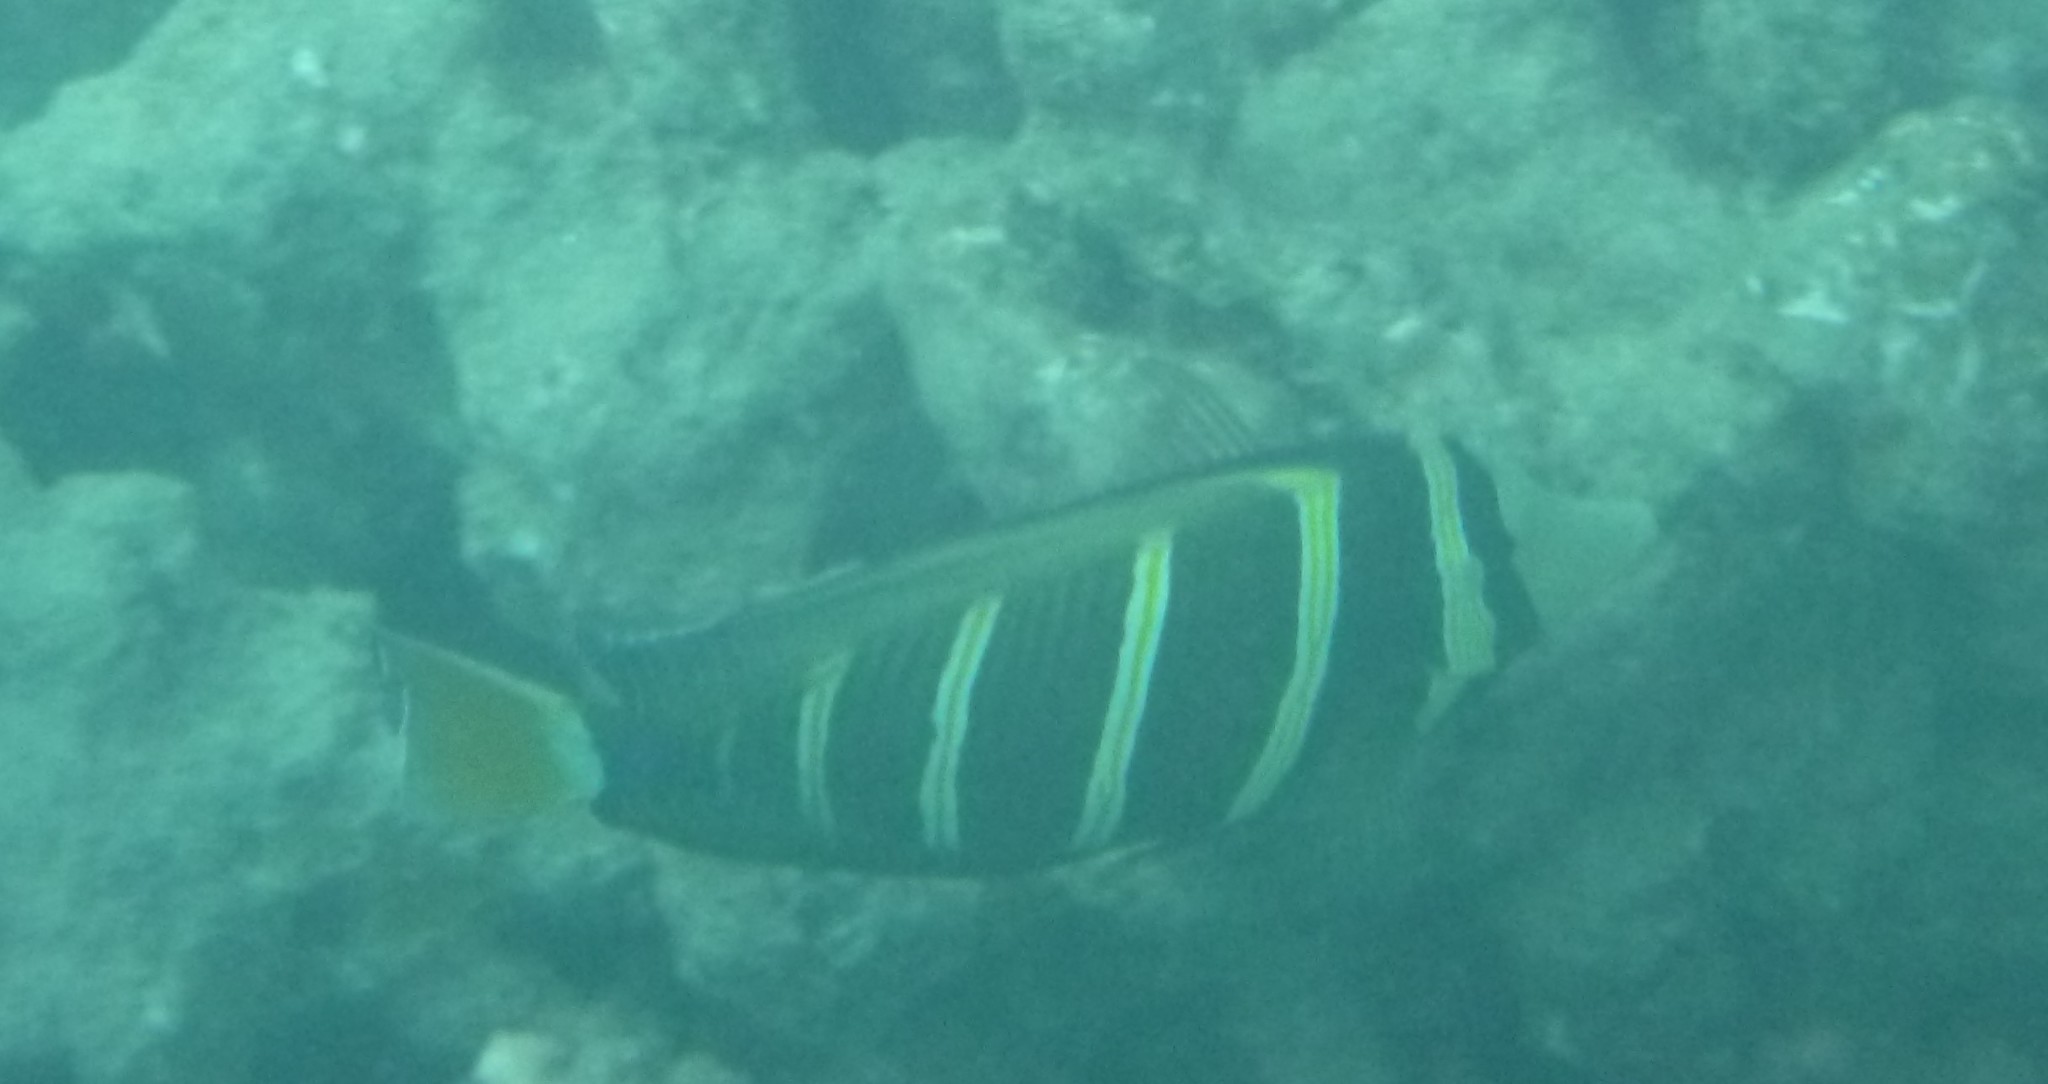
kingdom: Animalia
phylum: Chordata
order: Perciformes
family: Acanthuridae
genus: Zebrasoma
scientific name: Zebrasoma veliferum
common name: Sailfin surgeonfish
